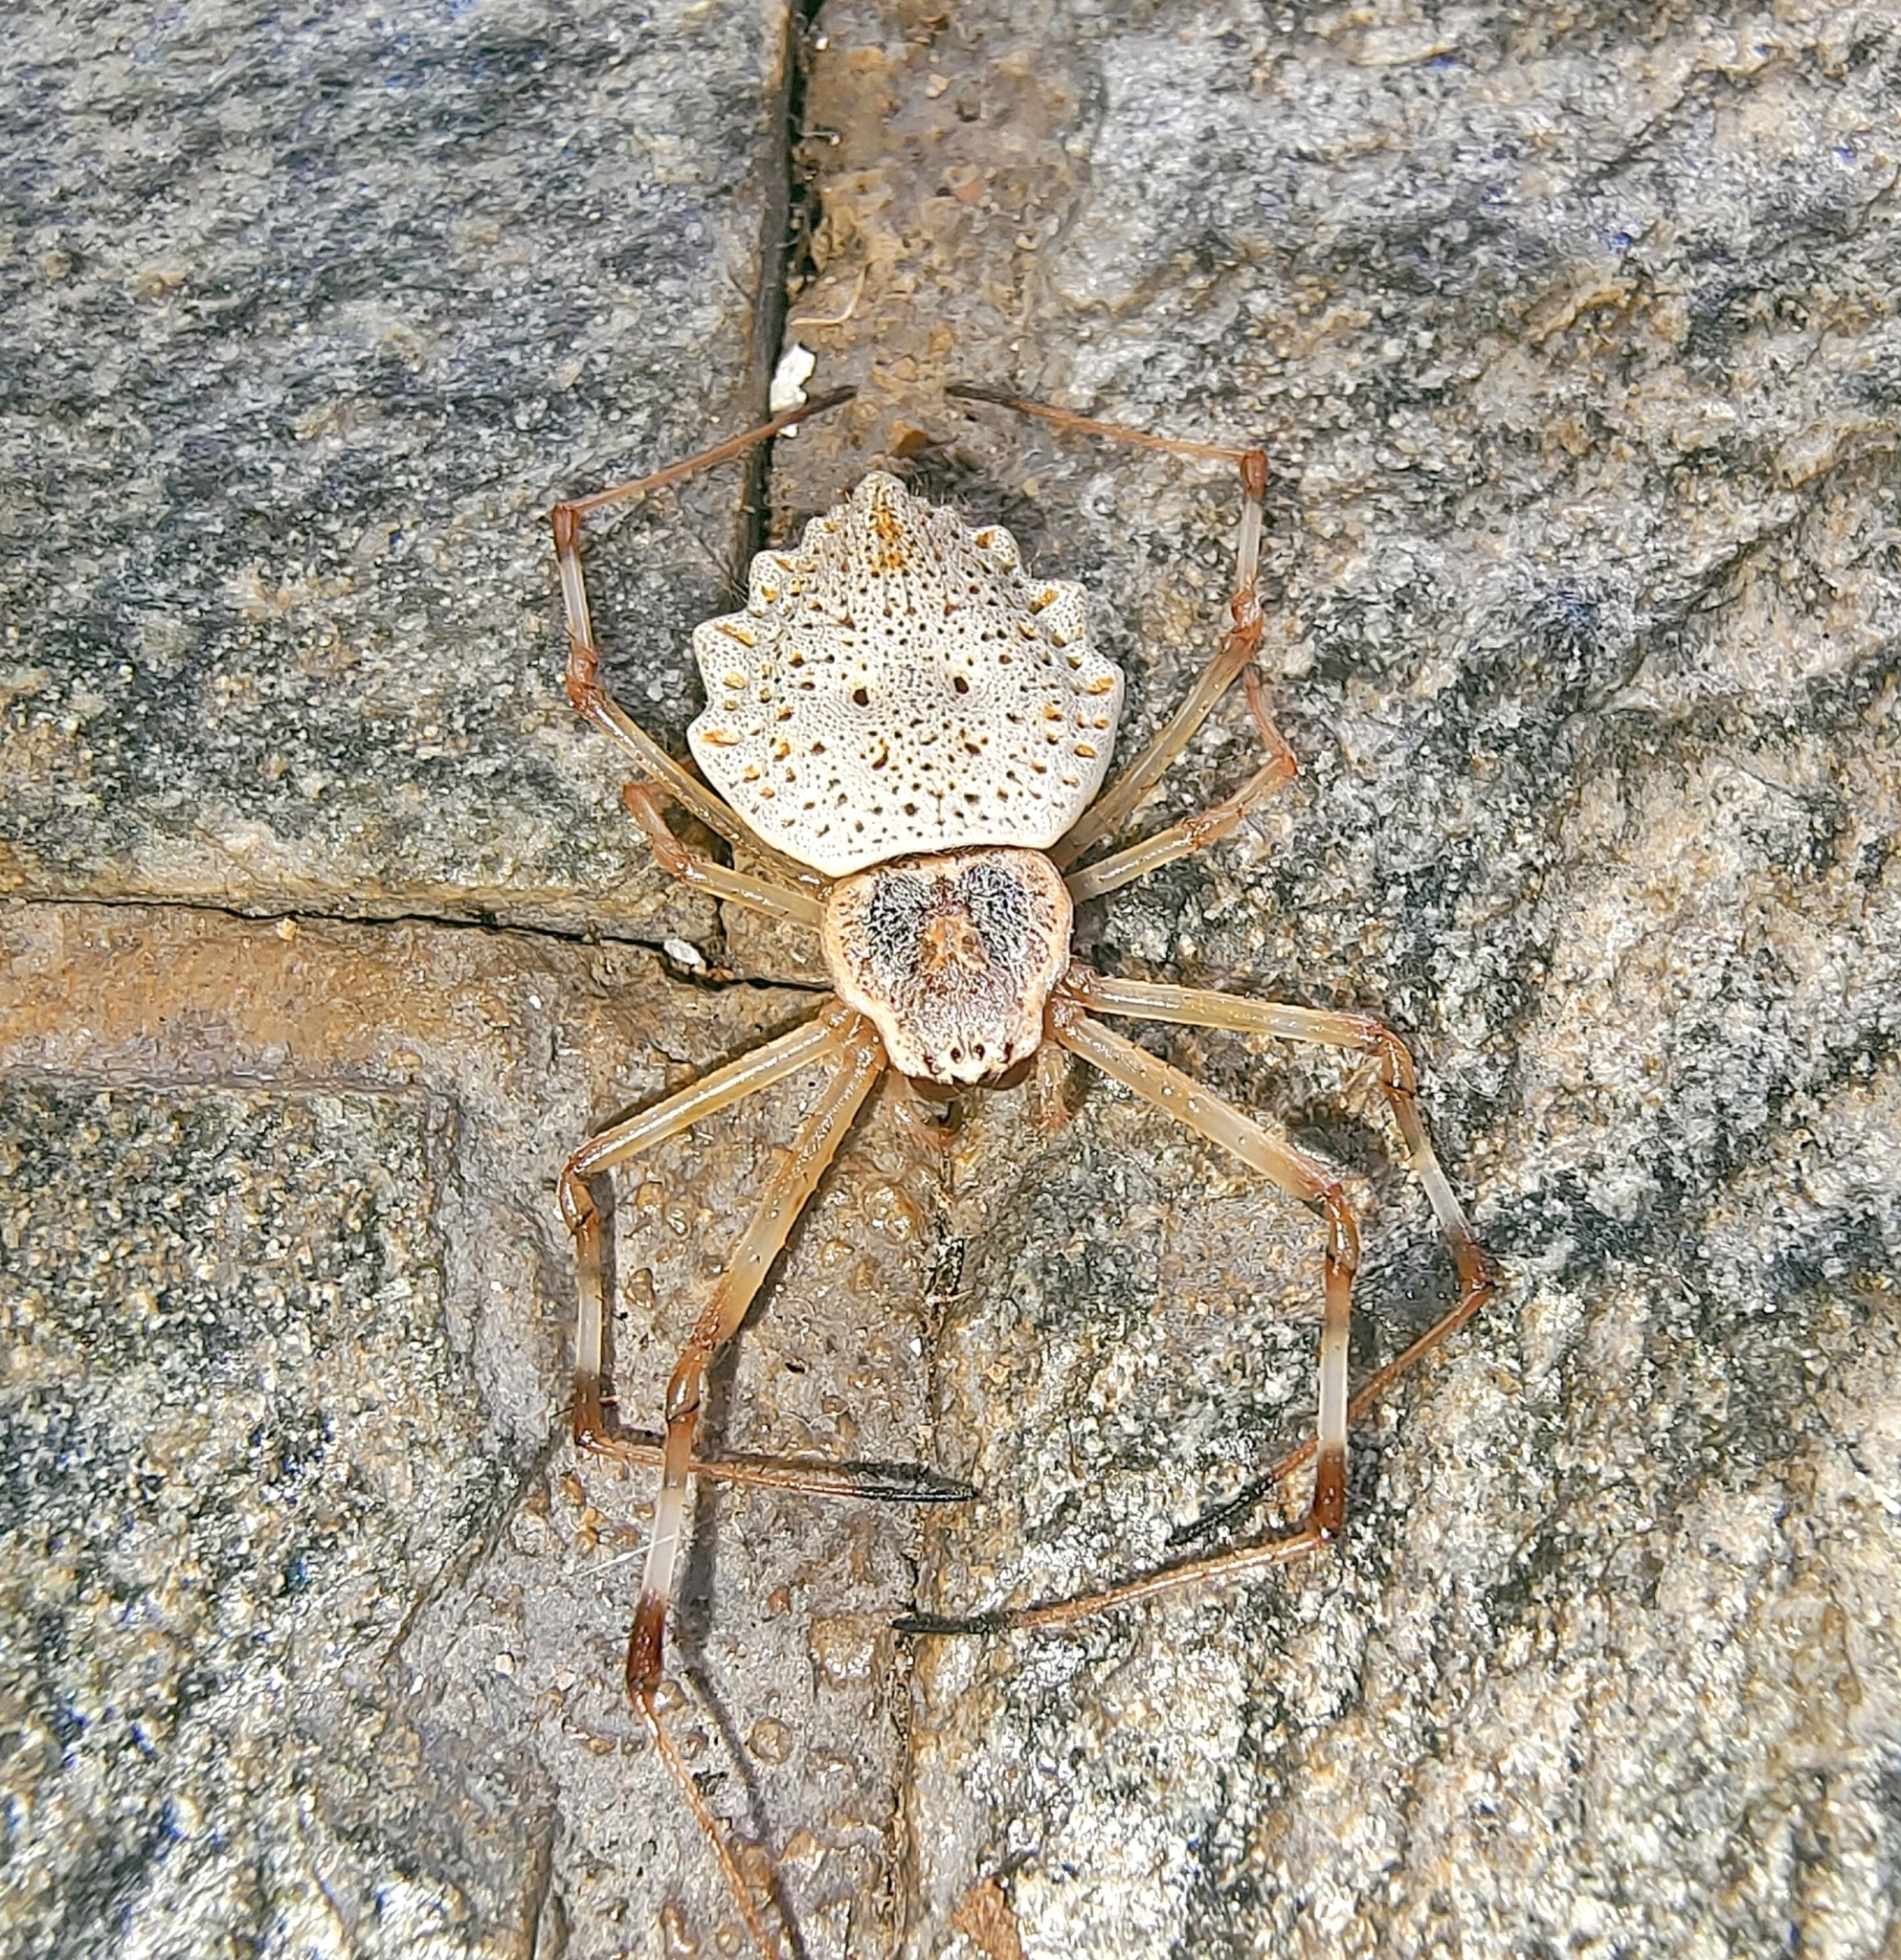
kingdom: Animalia
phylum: Arthropoda
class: Arachnida
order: Araneae
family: Araneidae
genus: Herennia
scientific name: Herennia multipuncta
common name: Spotted coin spider
